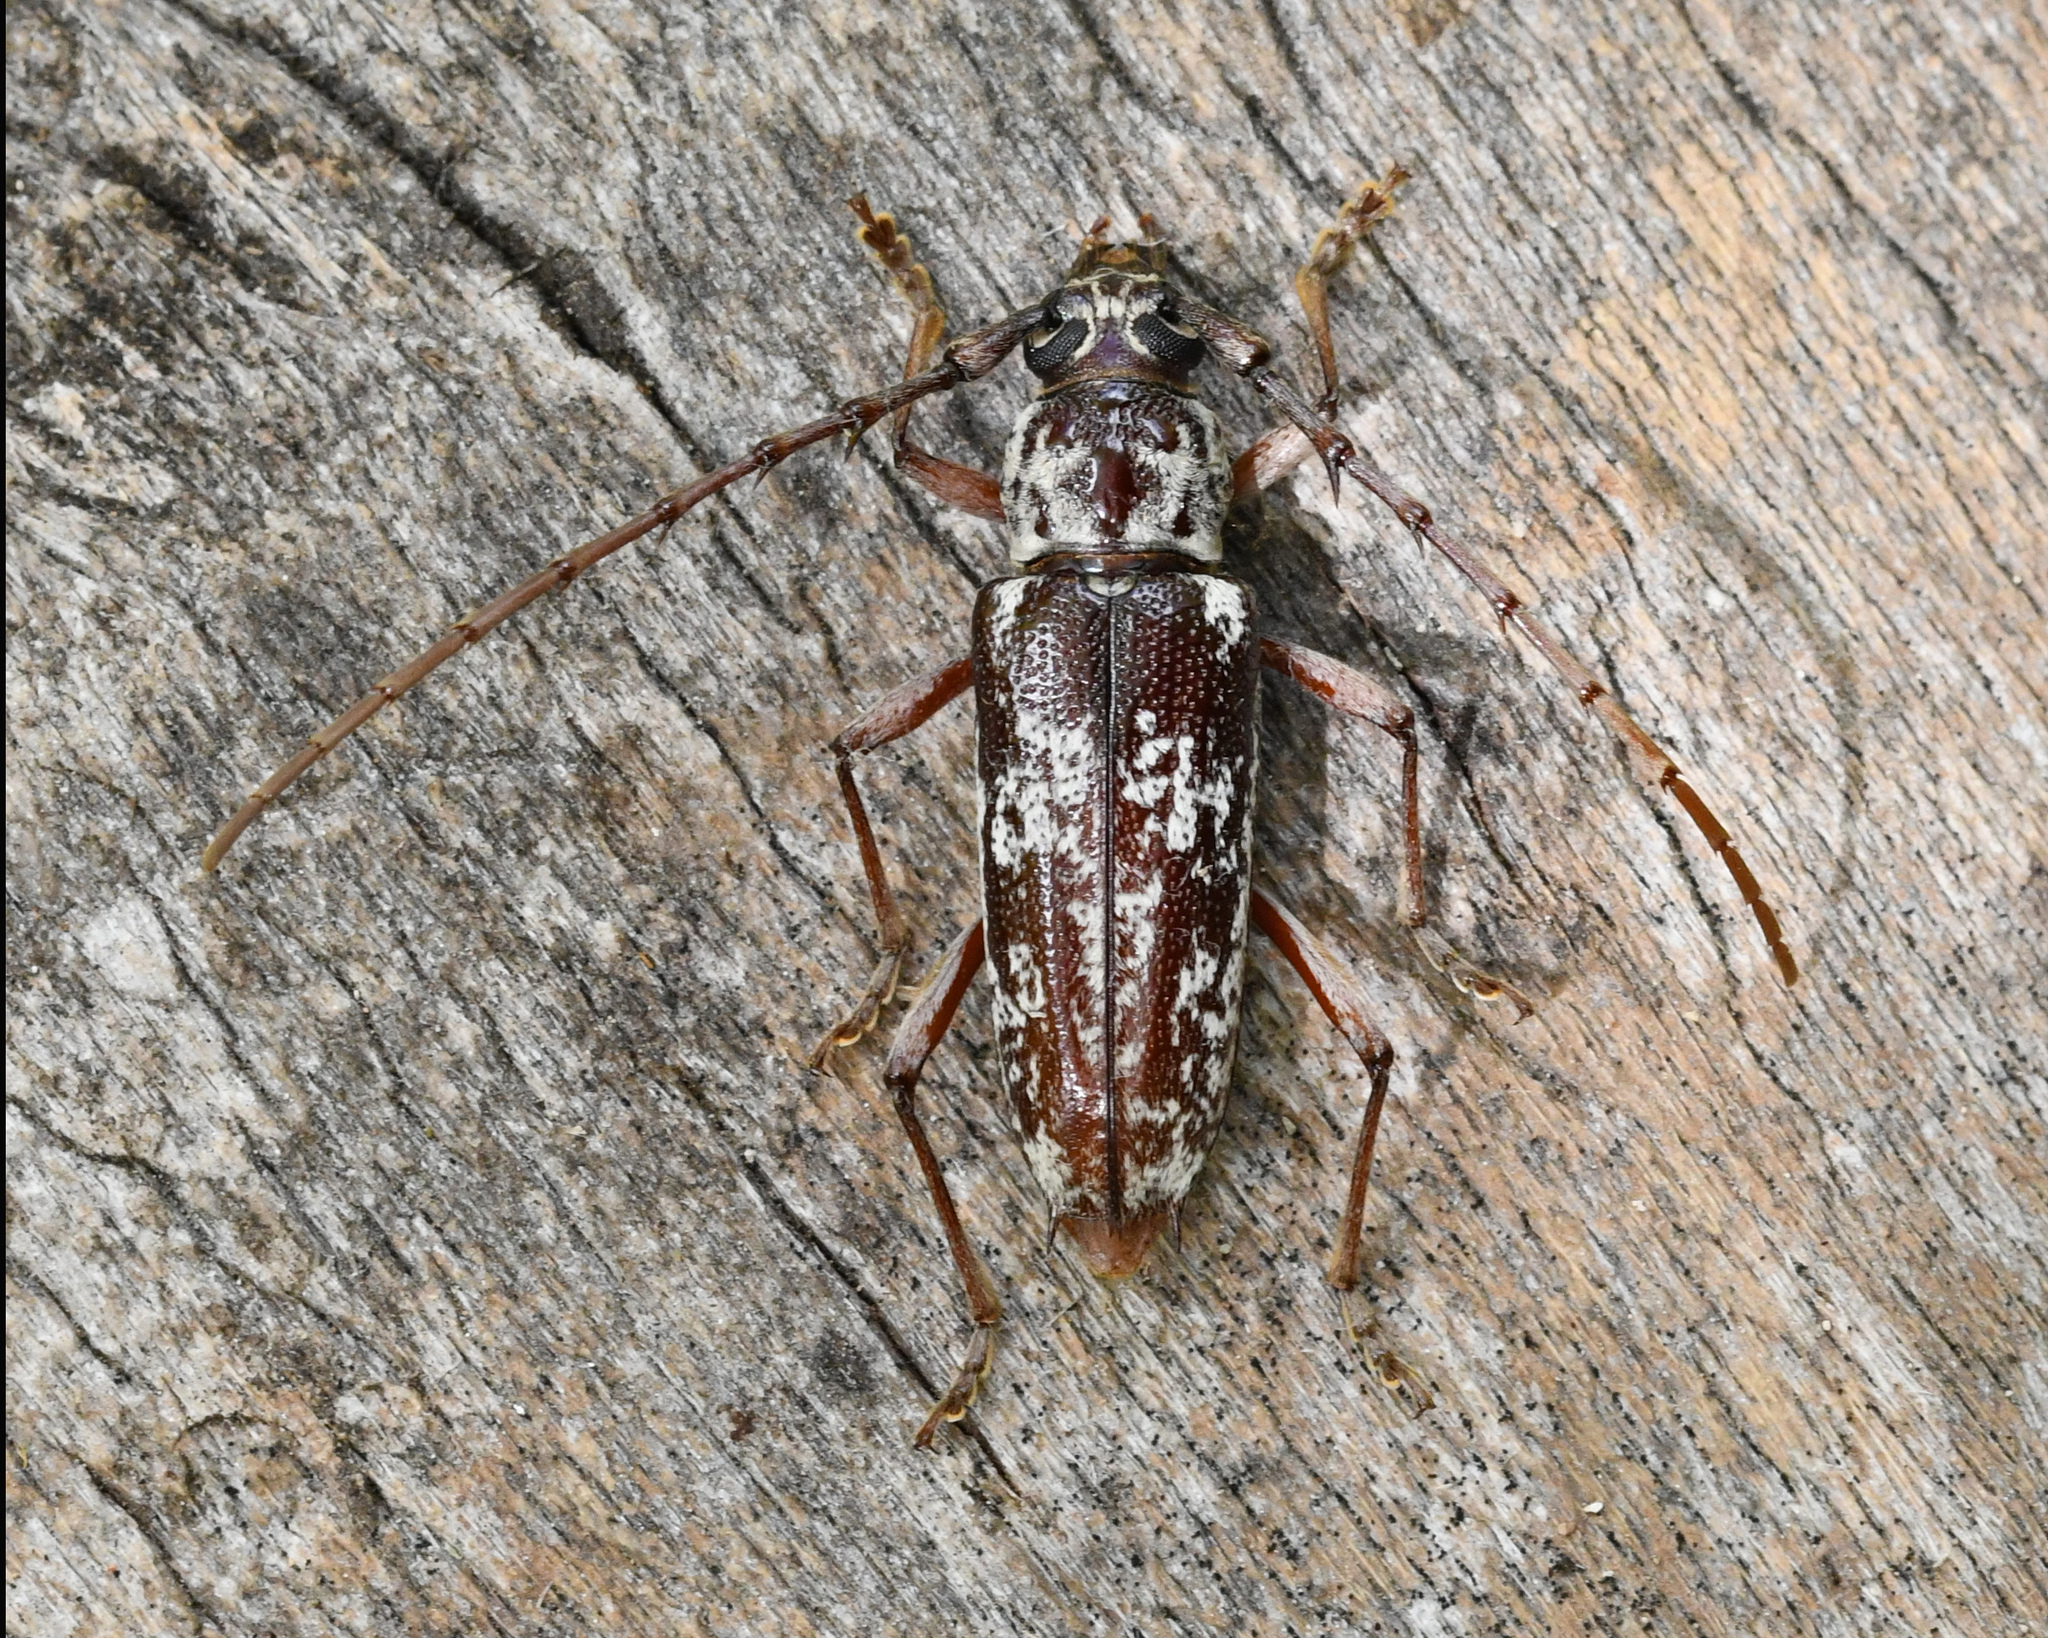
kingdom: Animalia
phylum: Arthropoda
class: Insecta
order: Coleoptera
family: Cerambycidae
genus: Elaphidion
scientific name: Elaphidion irroratum
